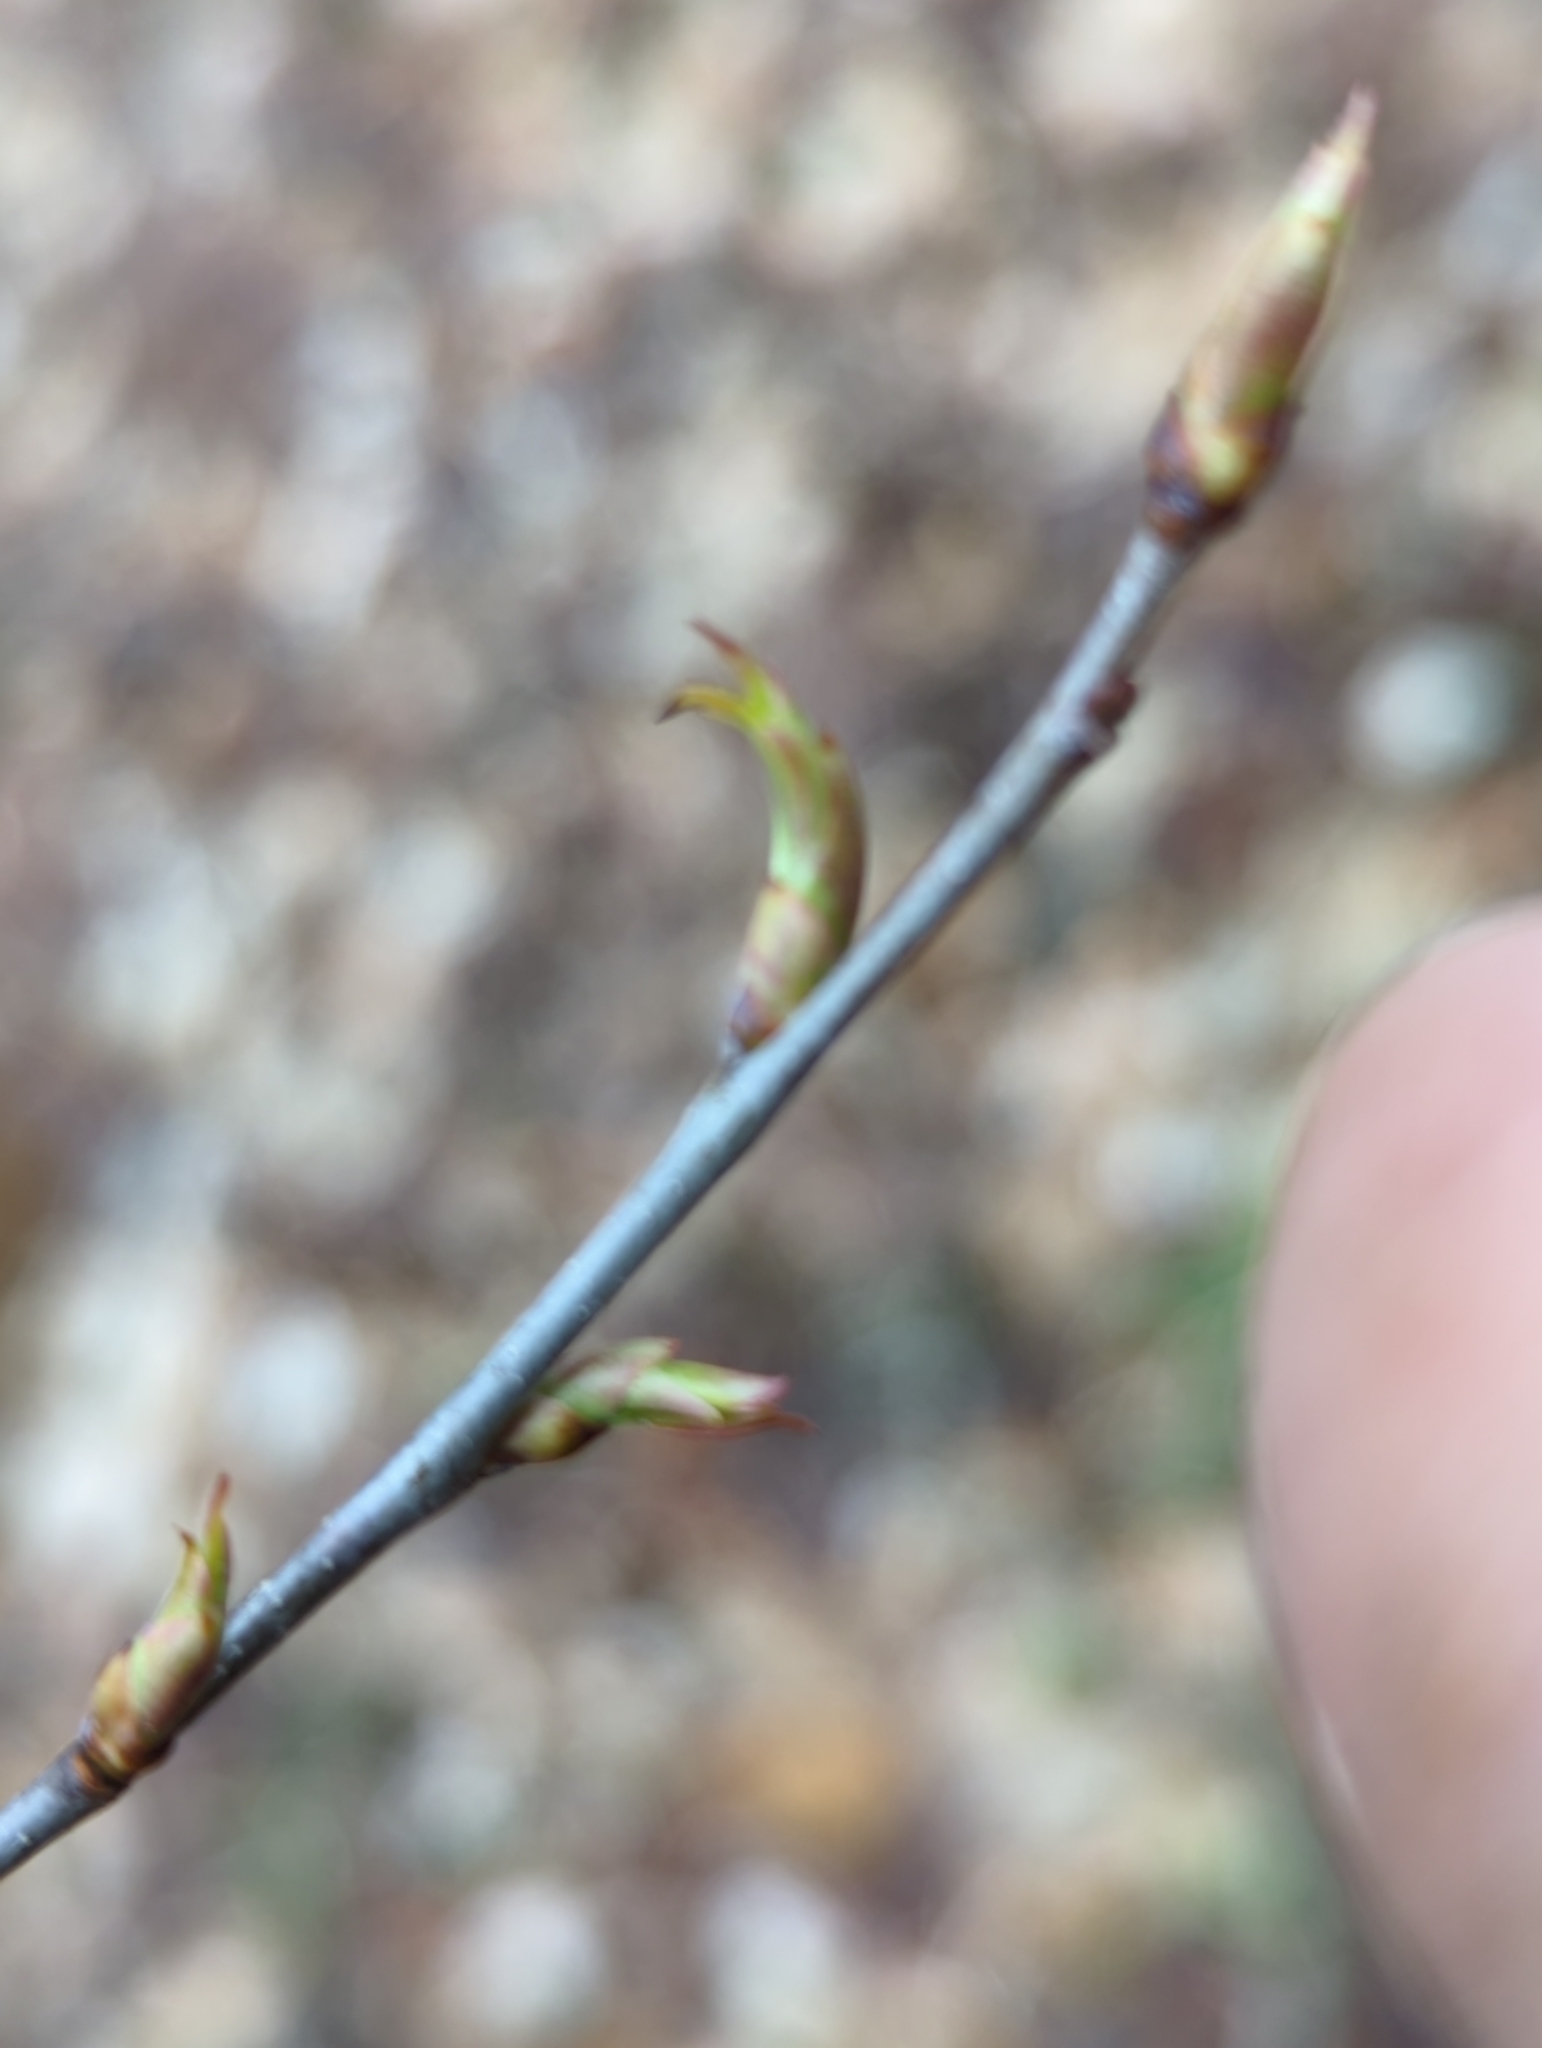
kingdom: Plantae
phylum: Tracheophyta
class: Magnoliopsida
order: Rosales
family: Rosaceae
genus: Prunus
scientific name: Prunus serotina
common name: Black cherry
